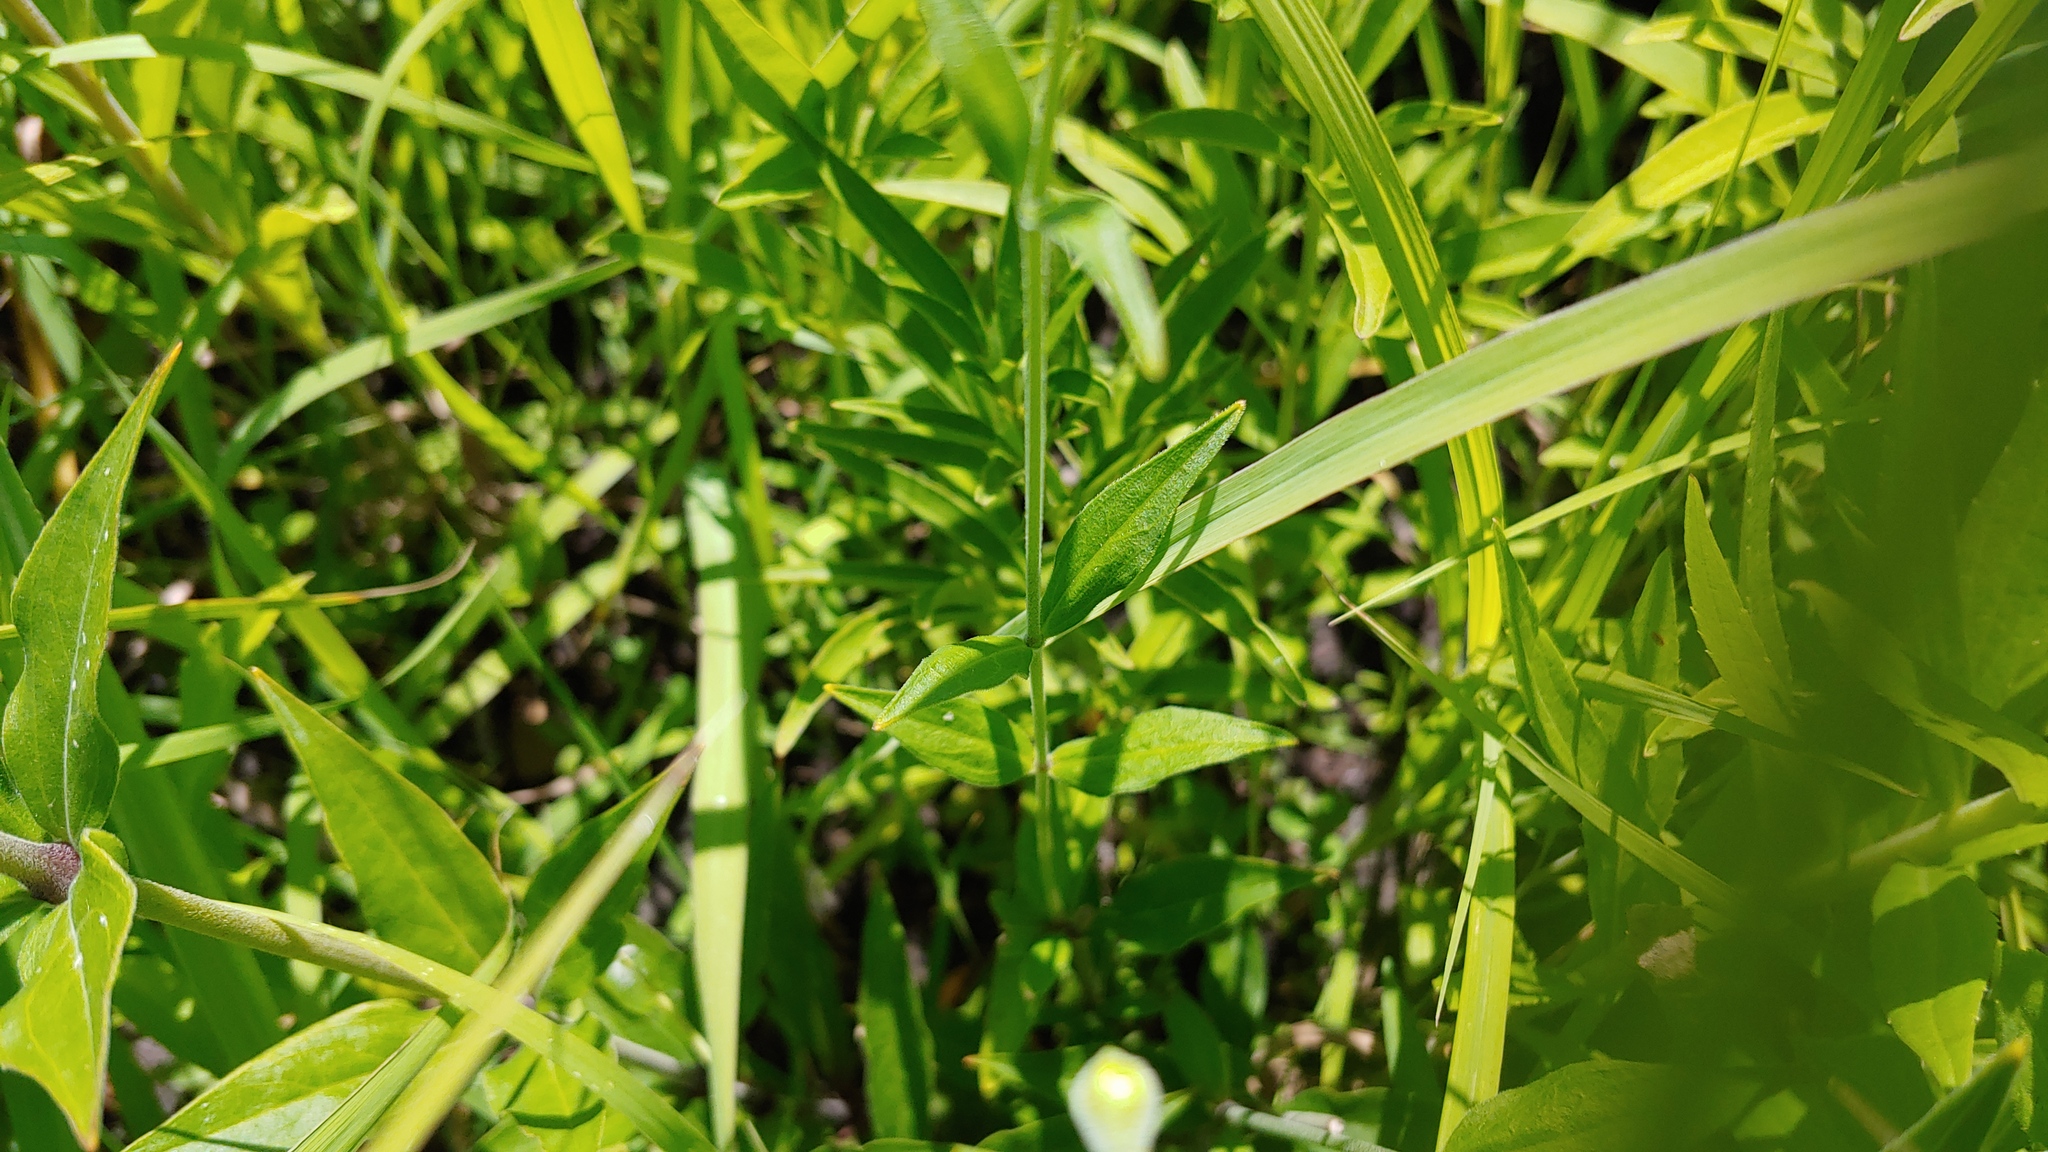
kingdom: Plantae
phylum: Tracheophyta
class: Magnoliopsida
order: Caryophyllales
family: Caryophyllaceae
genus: Silene
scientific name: Silene stellata
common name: Starry campion
